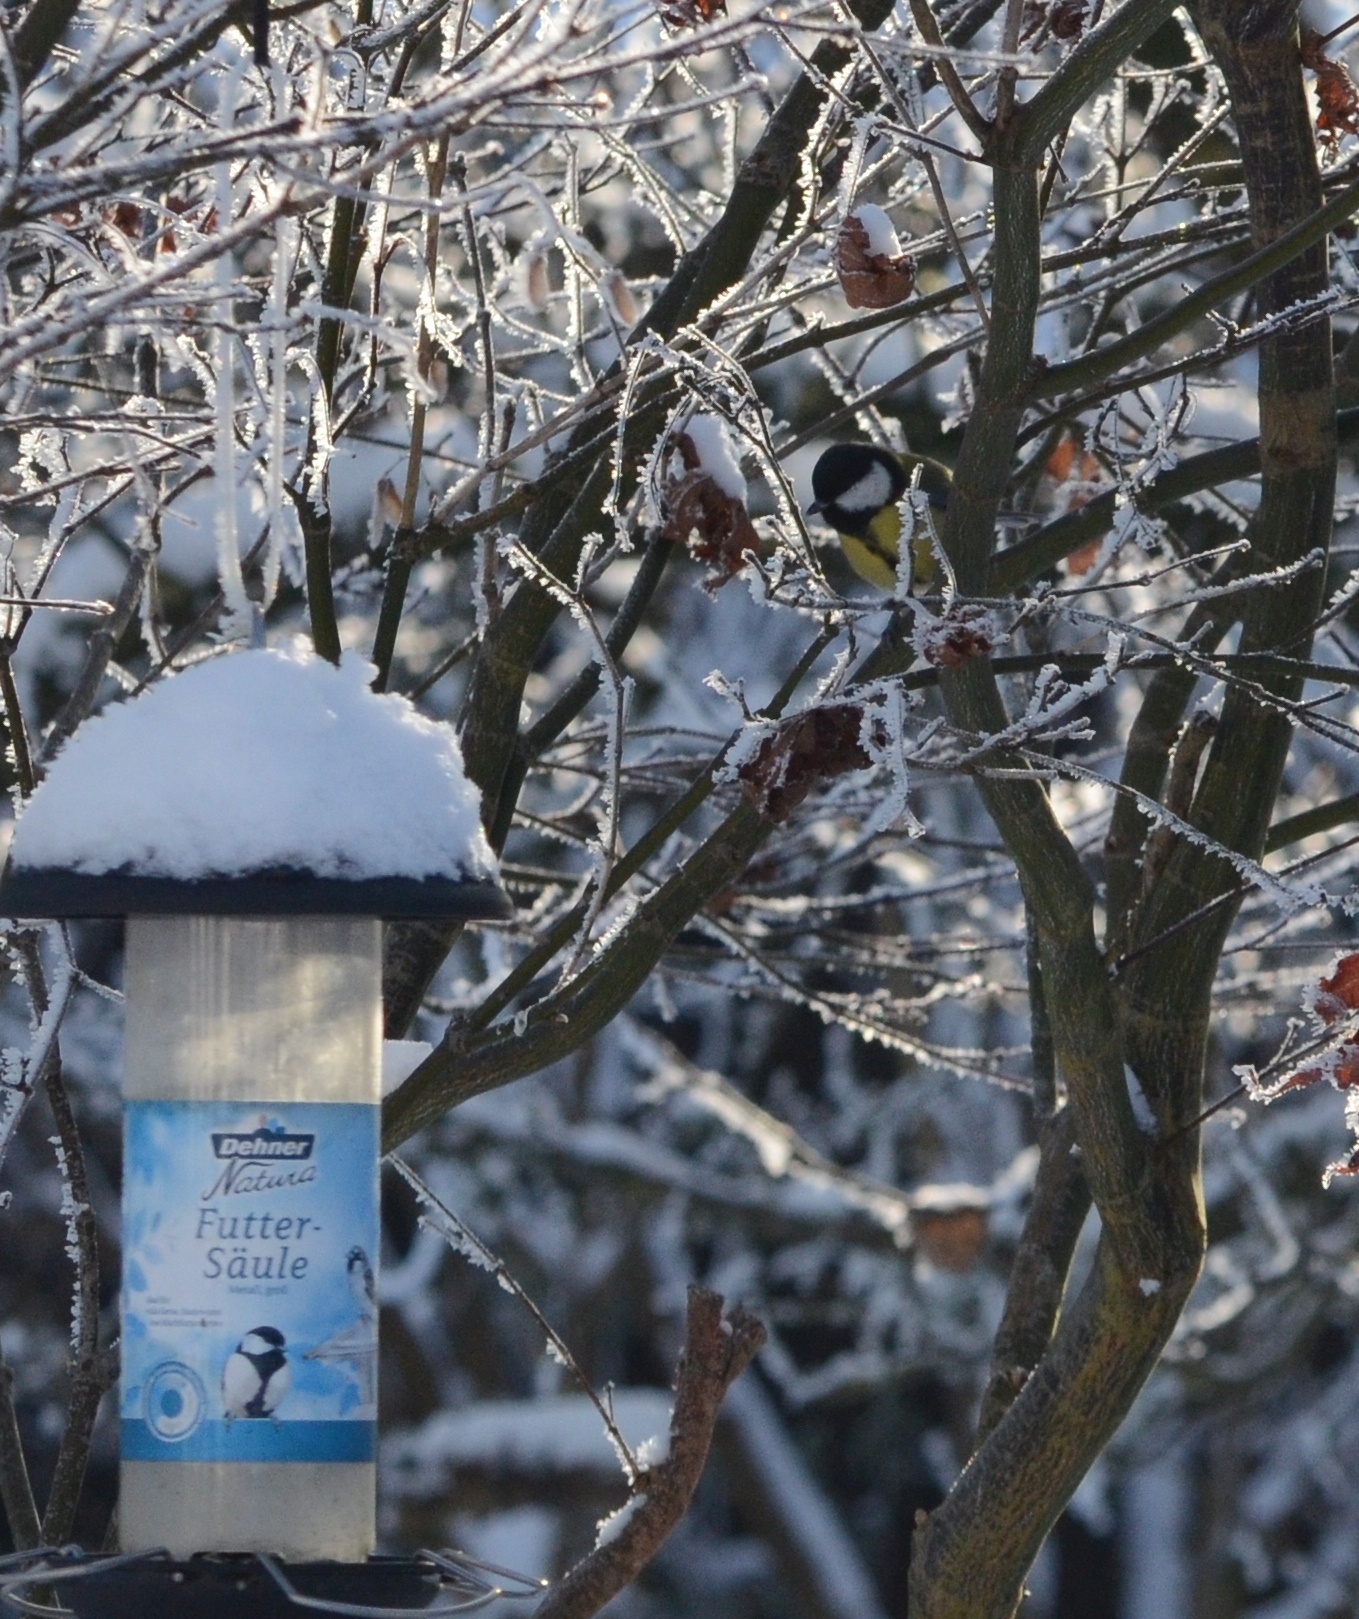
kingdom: Animalia
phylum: Chordata
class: Aves
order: Passeriformes
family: Paridae
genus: Parus
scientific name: Parus major
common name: Great tit
